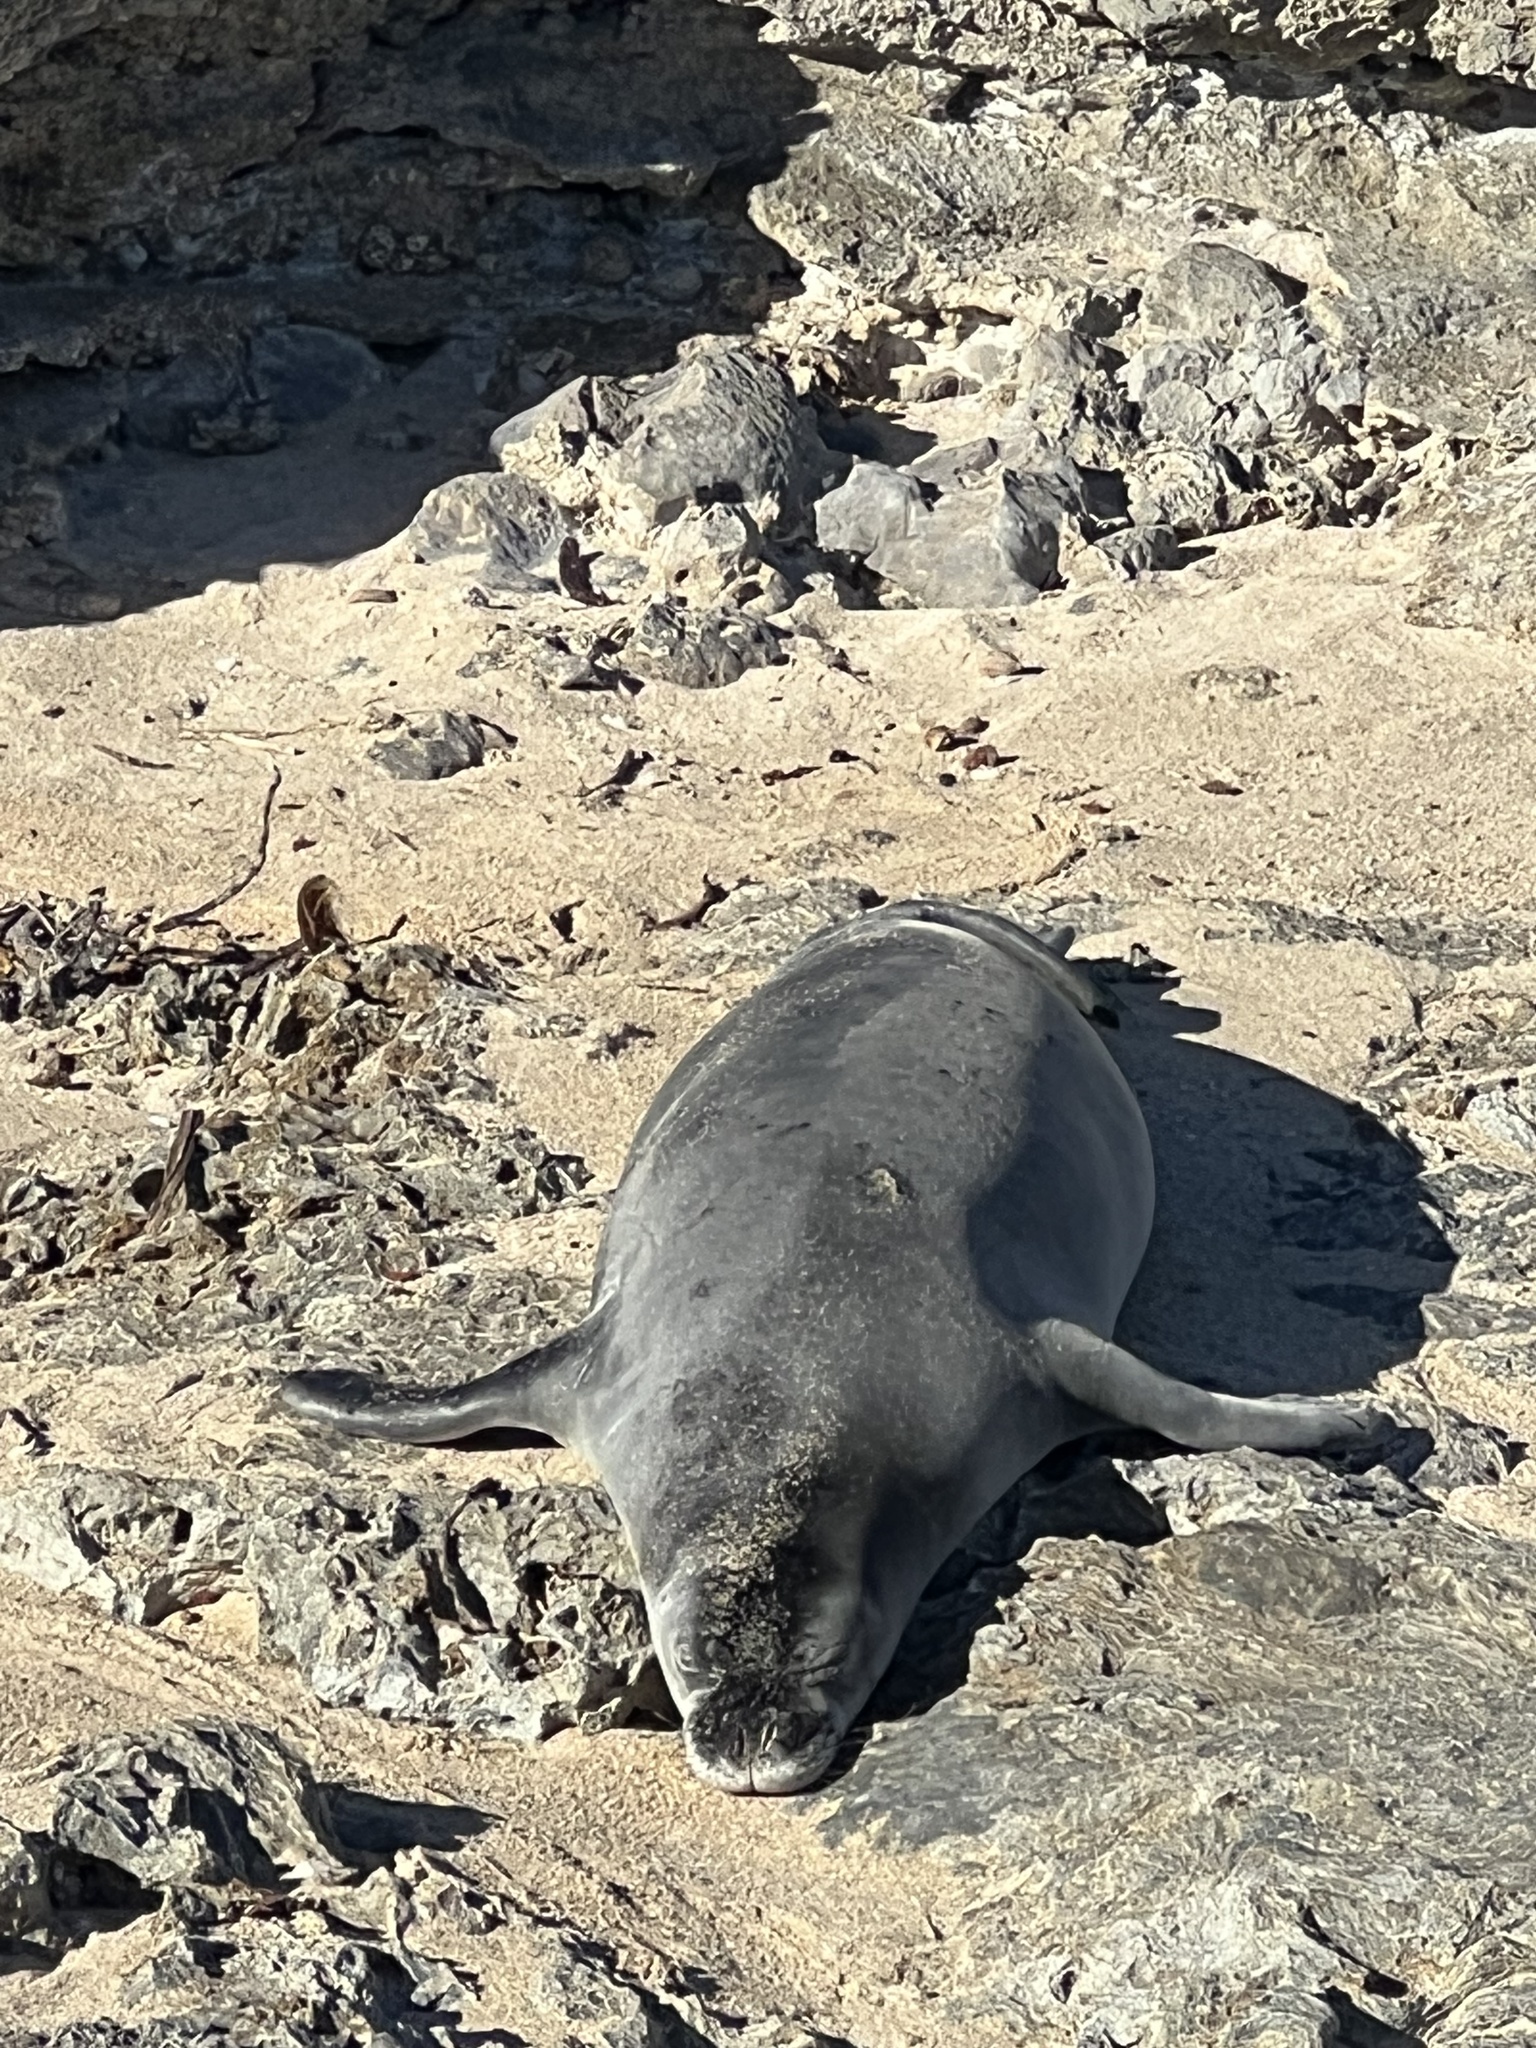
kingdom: Animalia
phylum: Chordata
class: Mammalia
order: Carnivora
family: Phocidae
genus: Neomonachus
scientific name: Neomonachus schauinslandi
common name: Hawaiian monk seal
